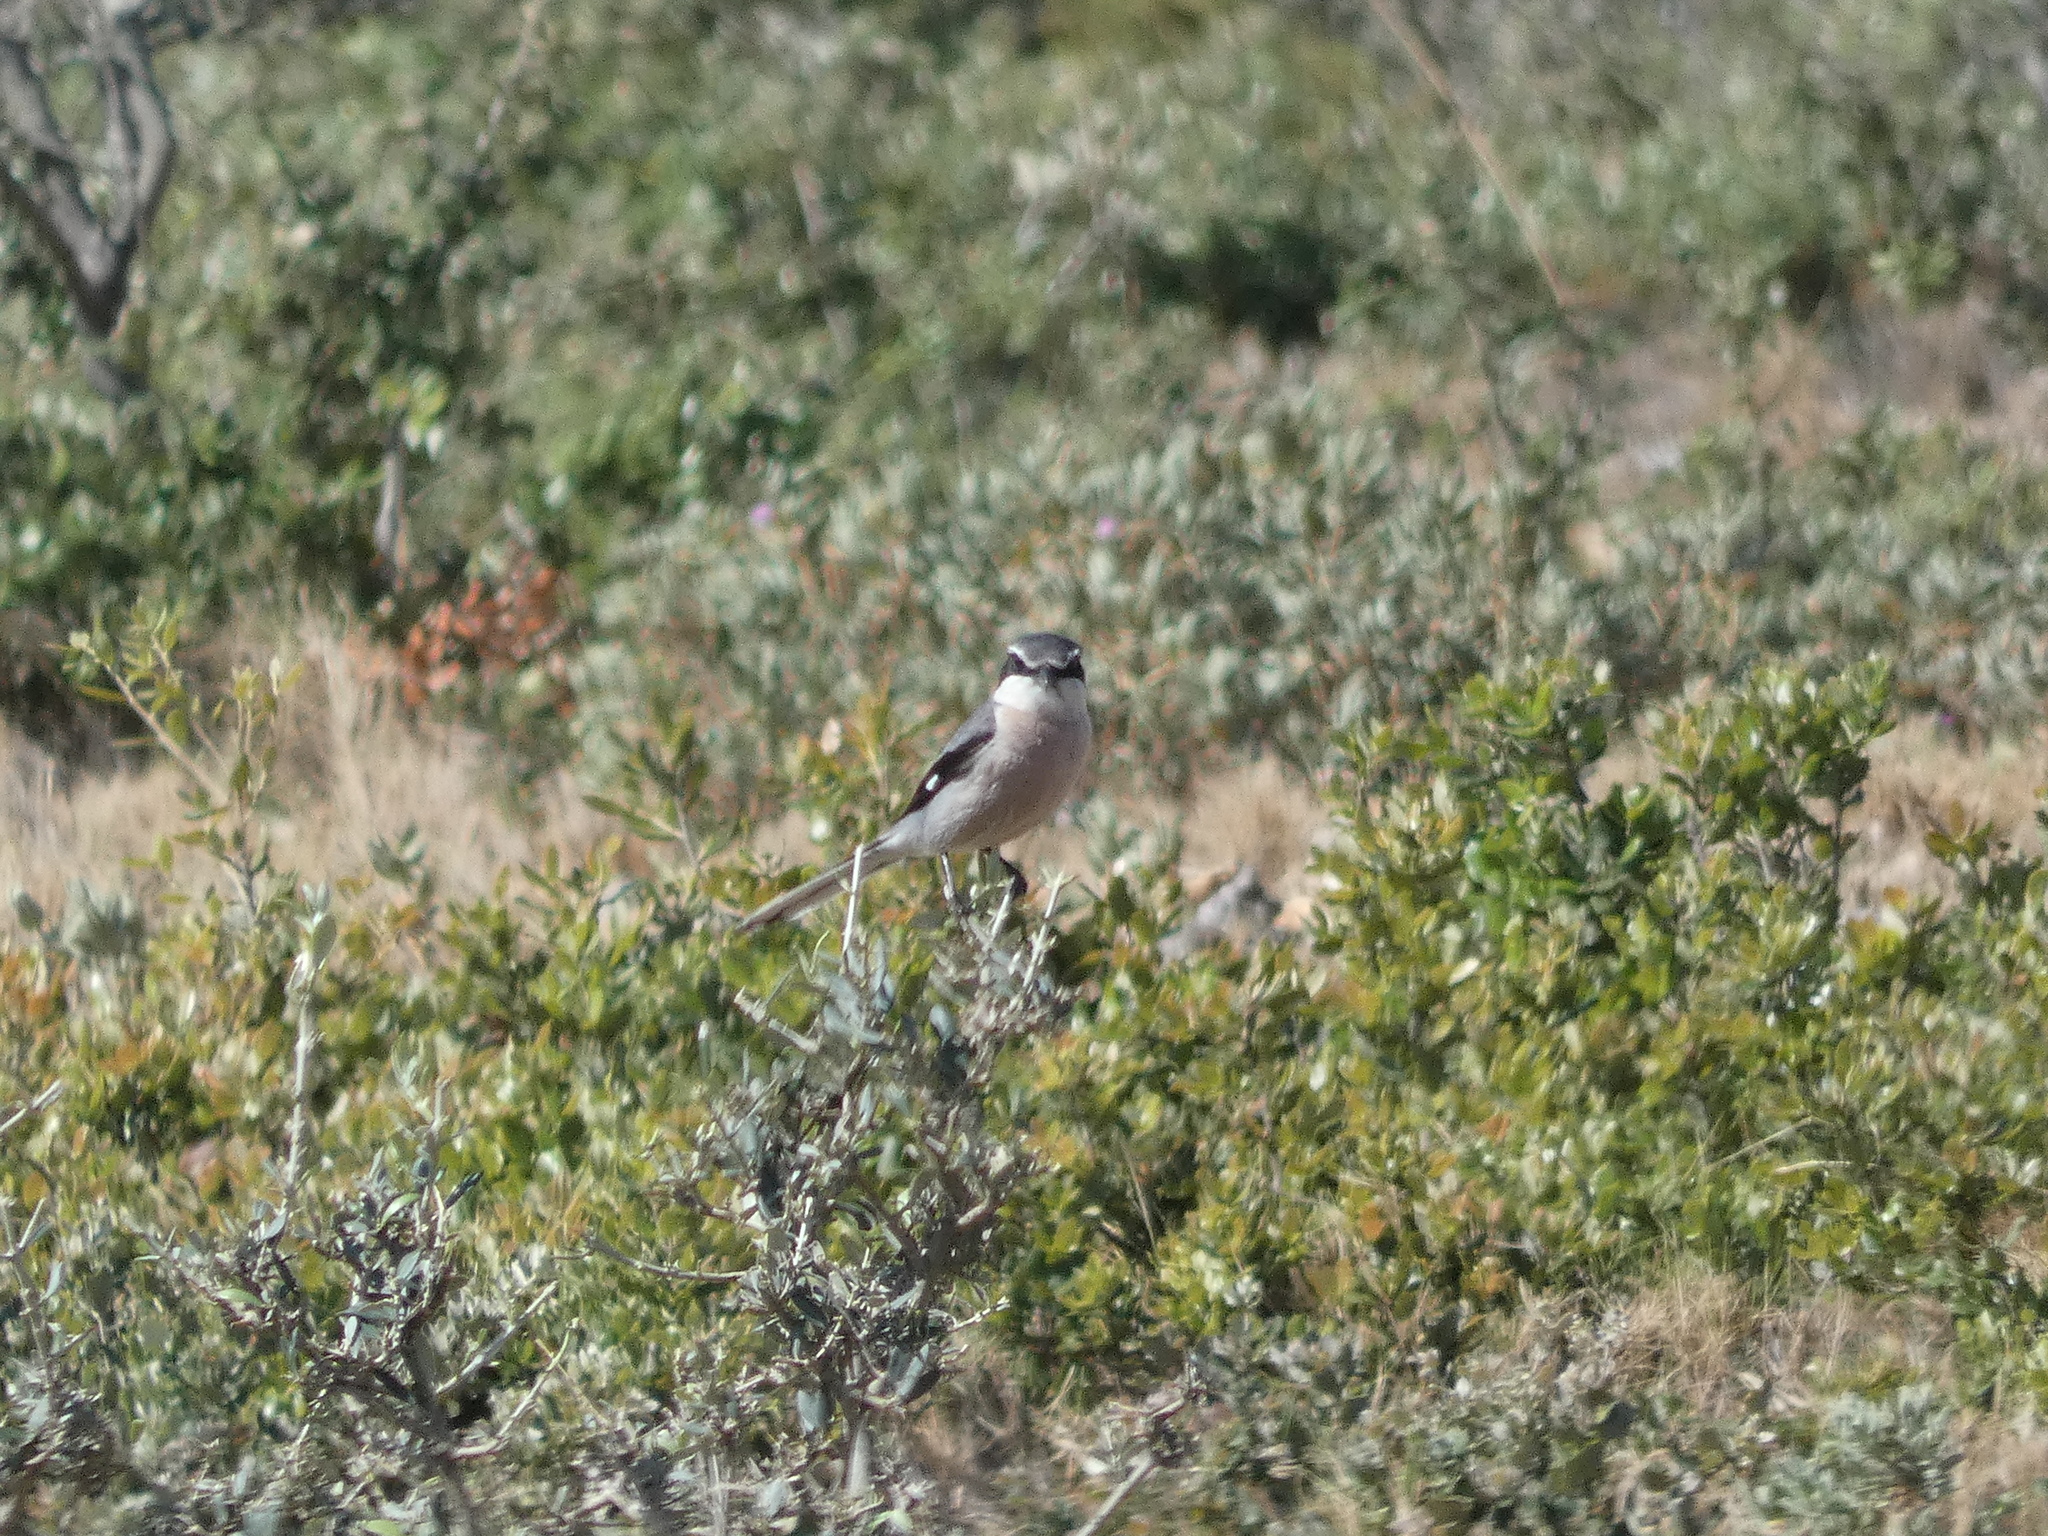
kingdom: Animalia
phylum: Chordata
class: Aves
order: Passeriformes
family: Laniidae
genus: Lanius
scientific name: Lanius meridionalis
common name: Iberian grey shrike
